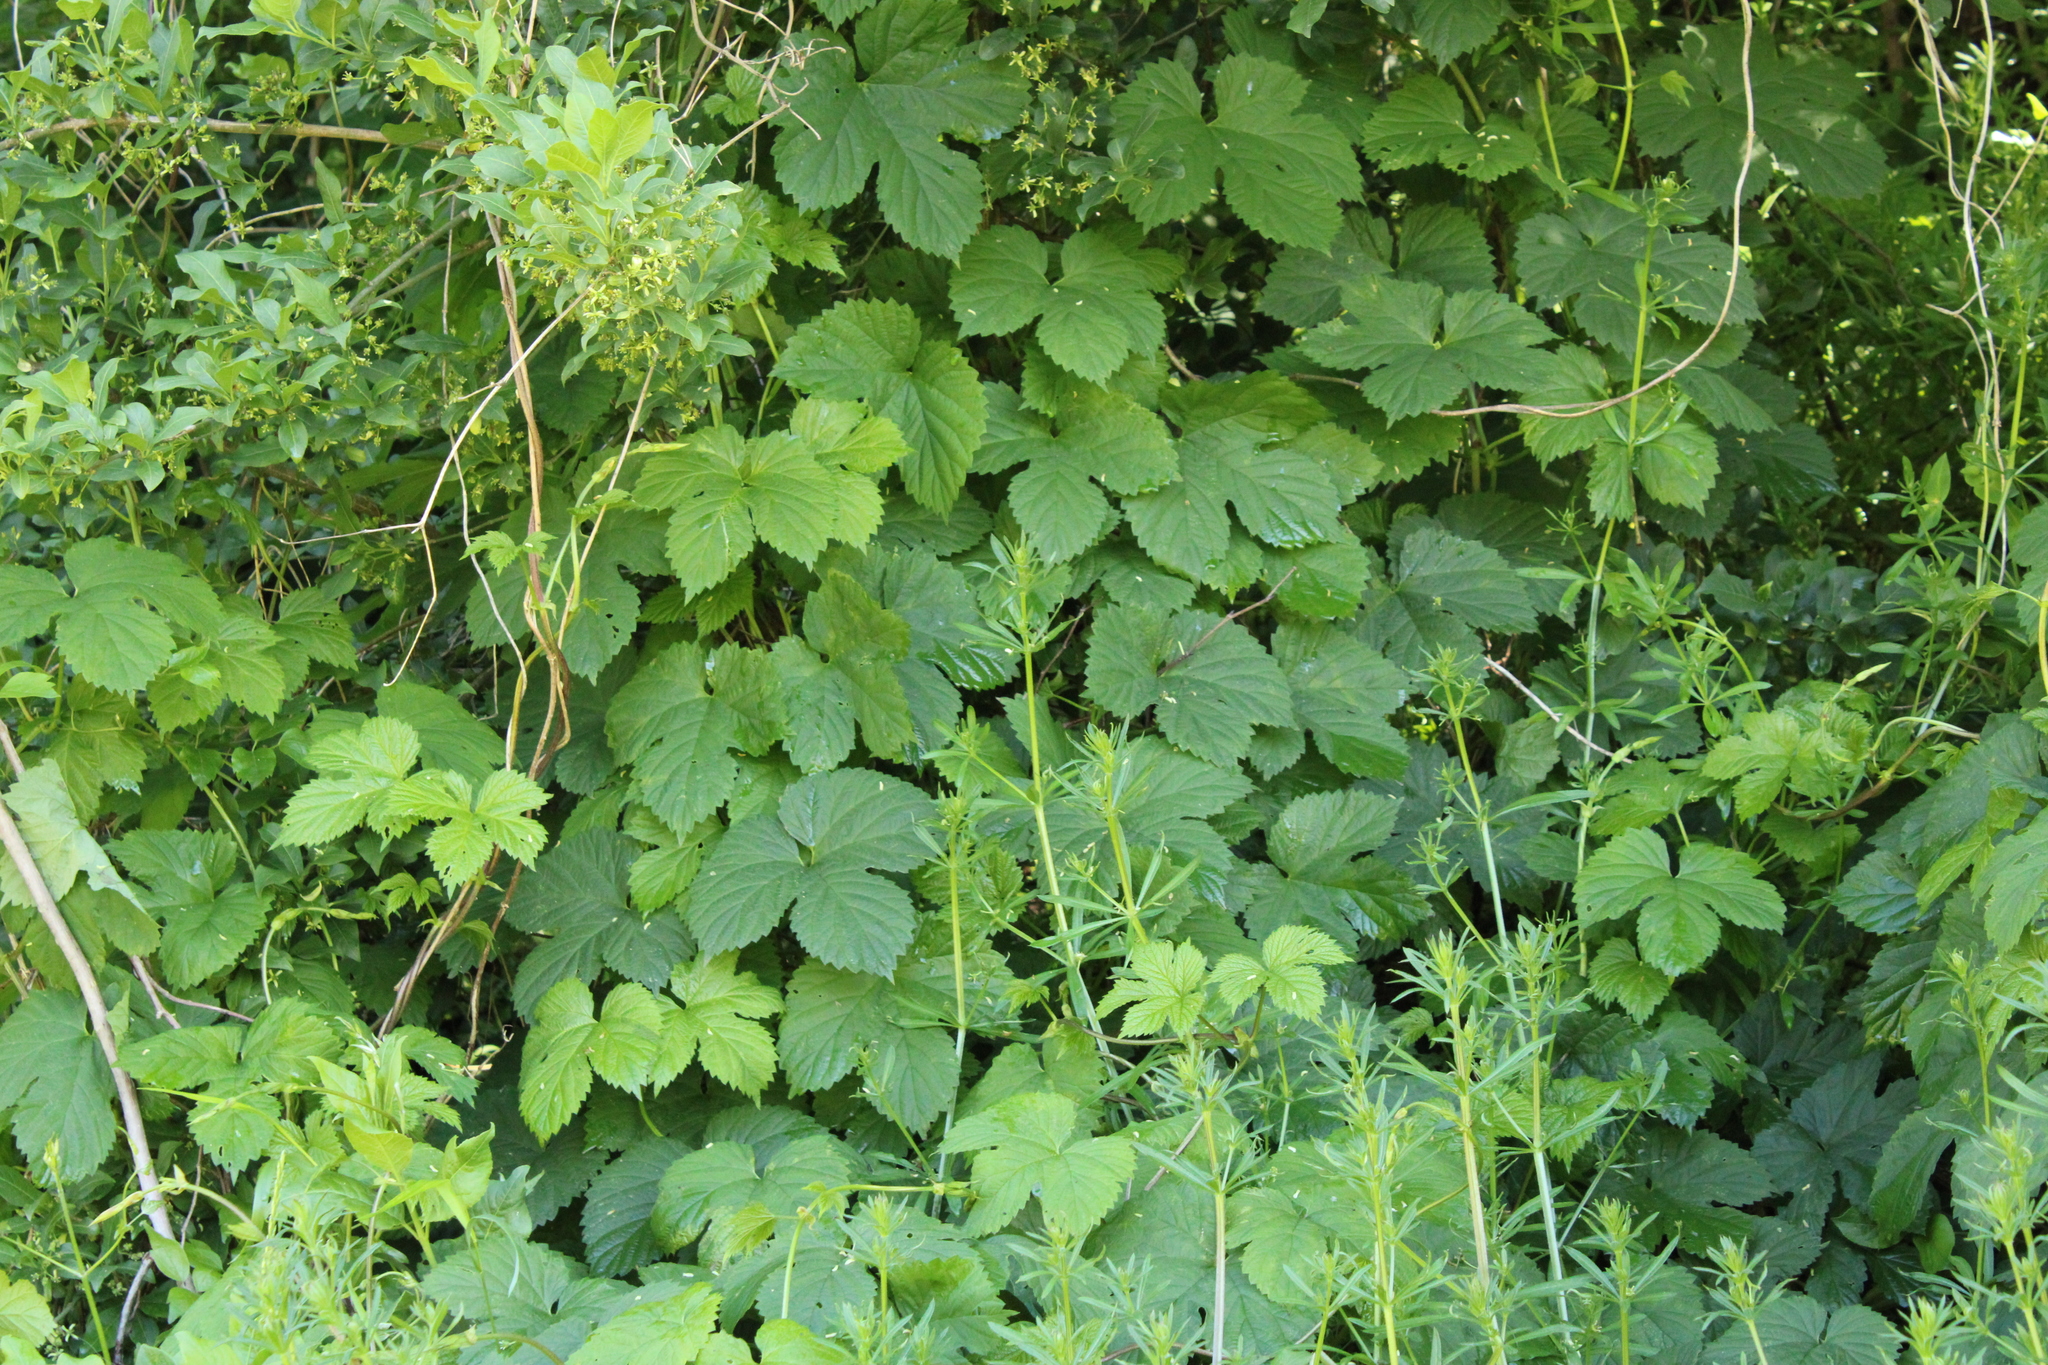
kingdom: Plantae
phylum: Tracheophyta
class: Magnoliopsida
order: Rosales
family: Cannabaceae
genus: Humulus
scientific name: Humulus lupulus
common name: Hop
